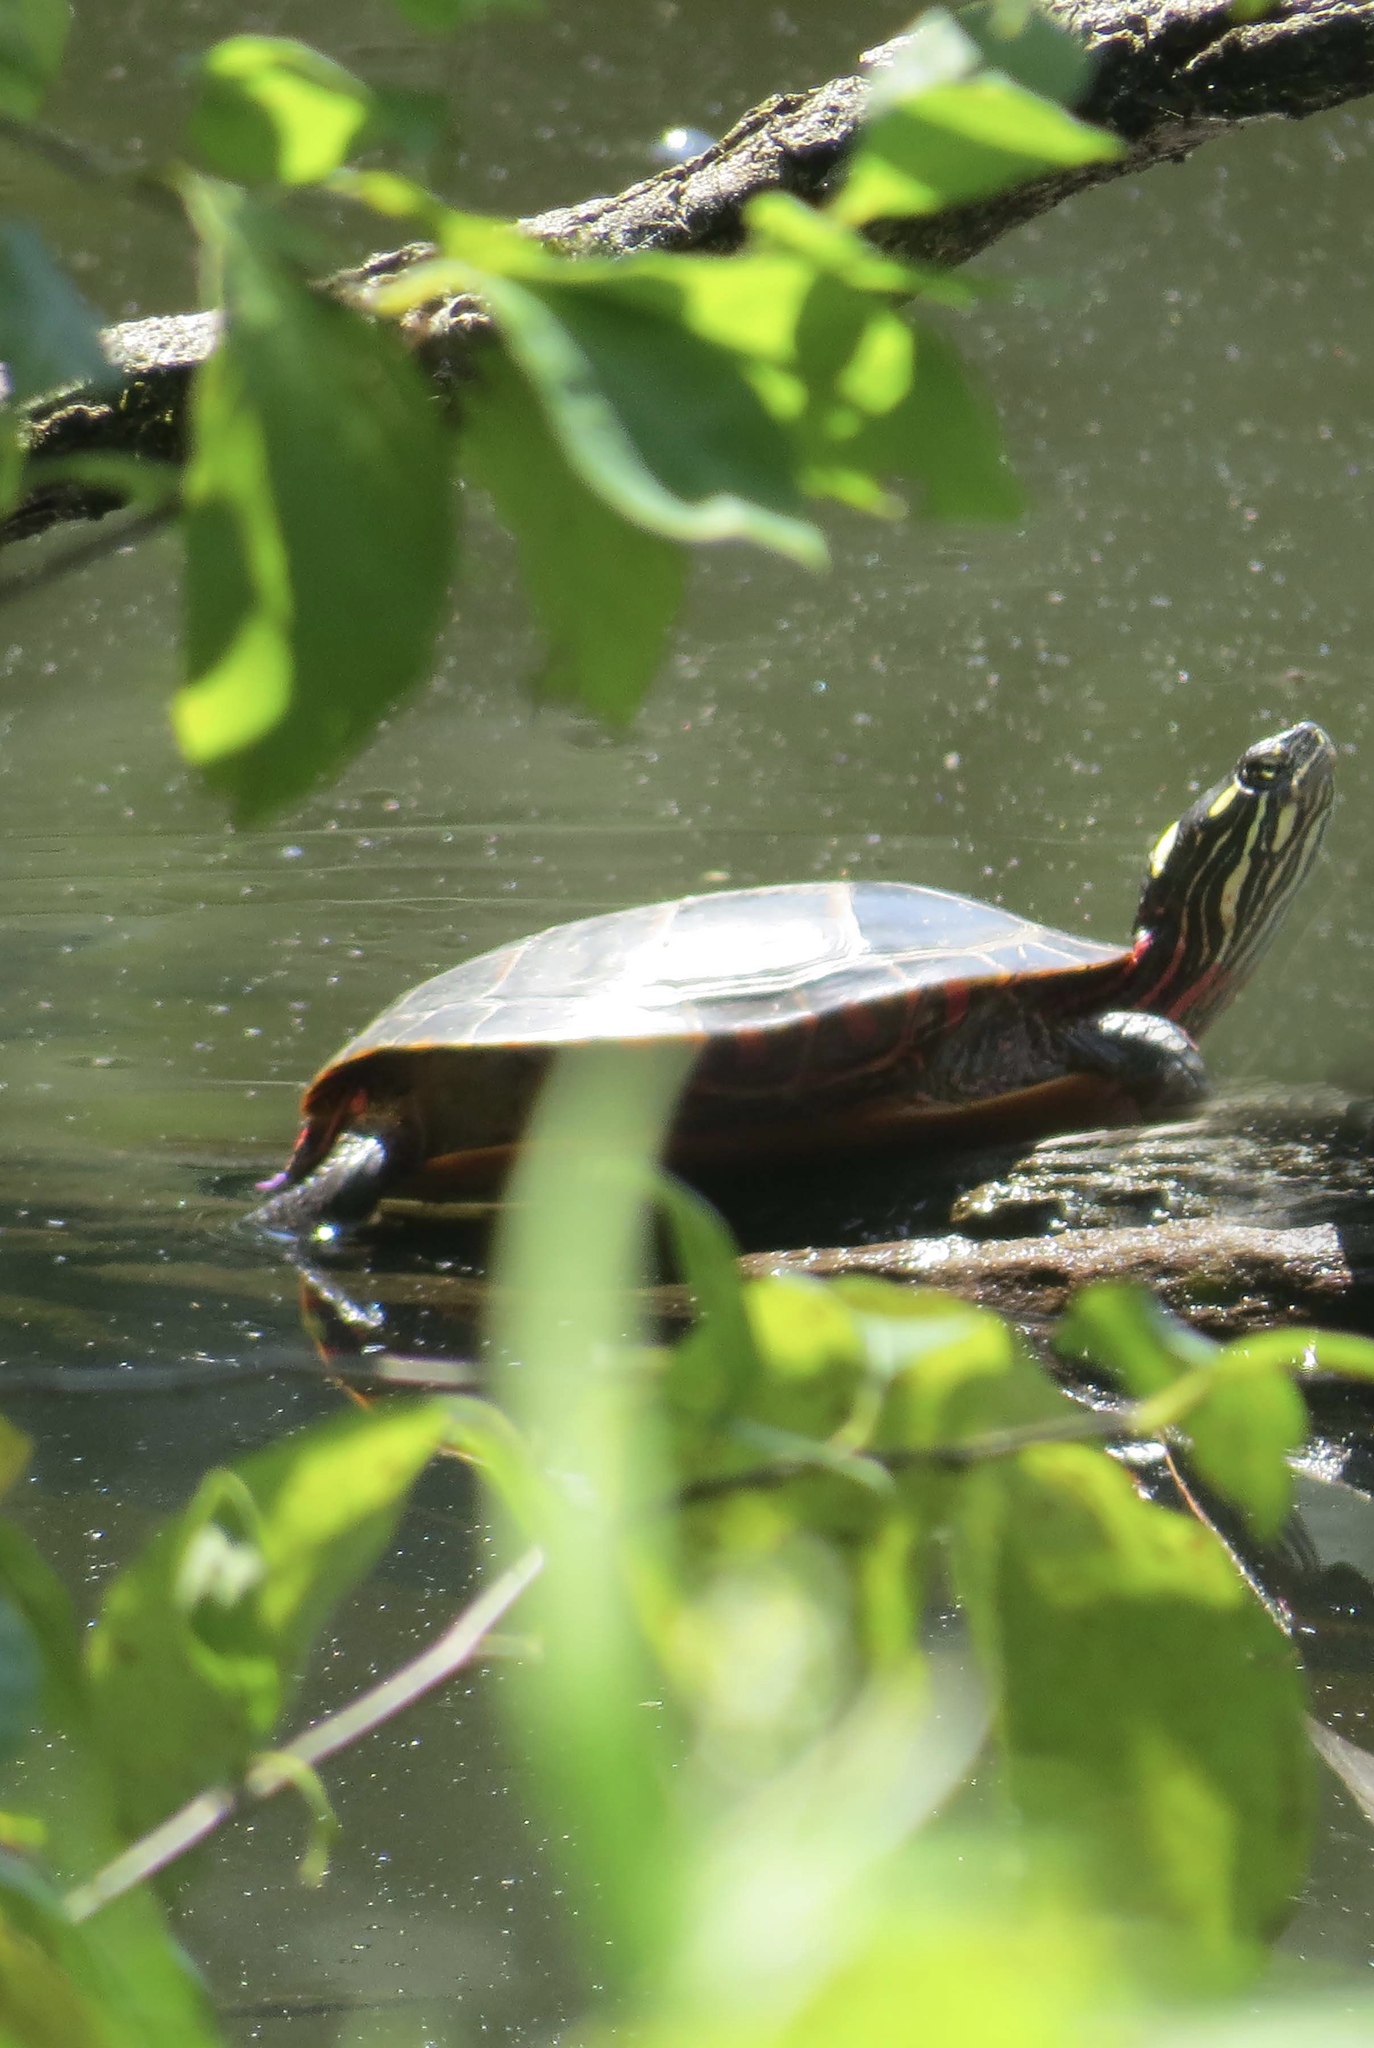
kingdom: Animalia
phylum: Chordata
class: Testudines
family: Emydidae
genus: Chrysemys
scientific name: Chrysemys picta
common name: Painted turtle
